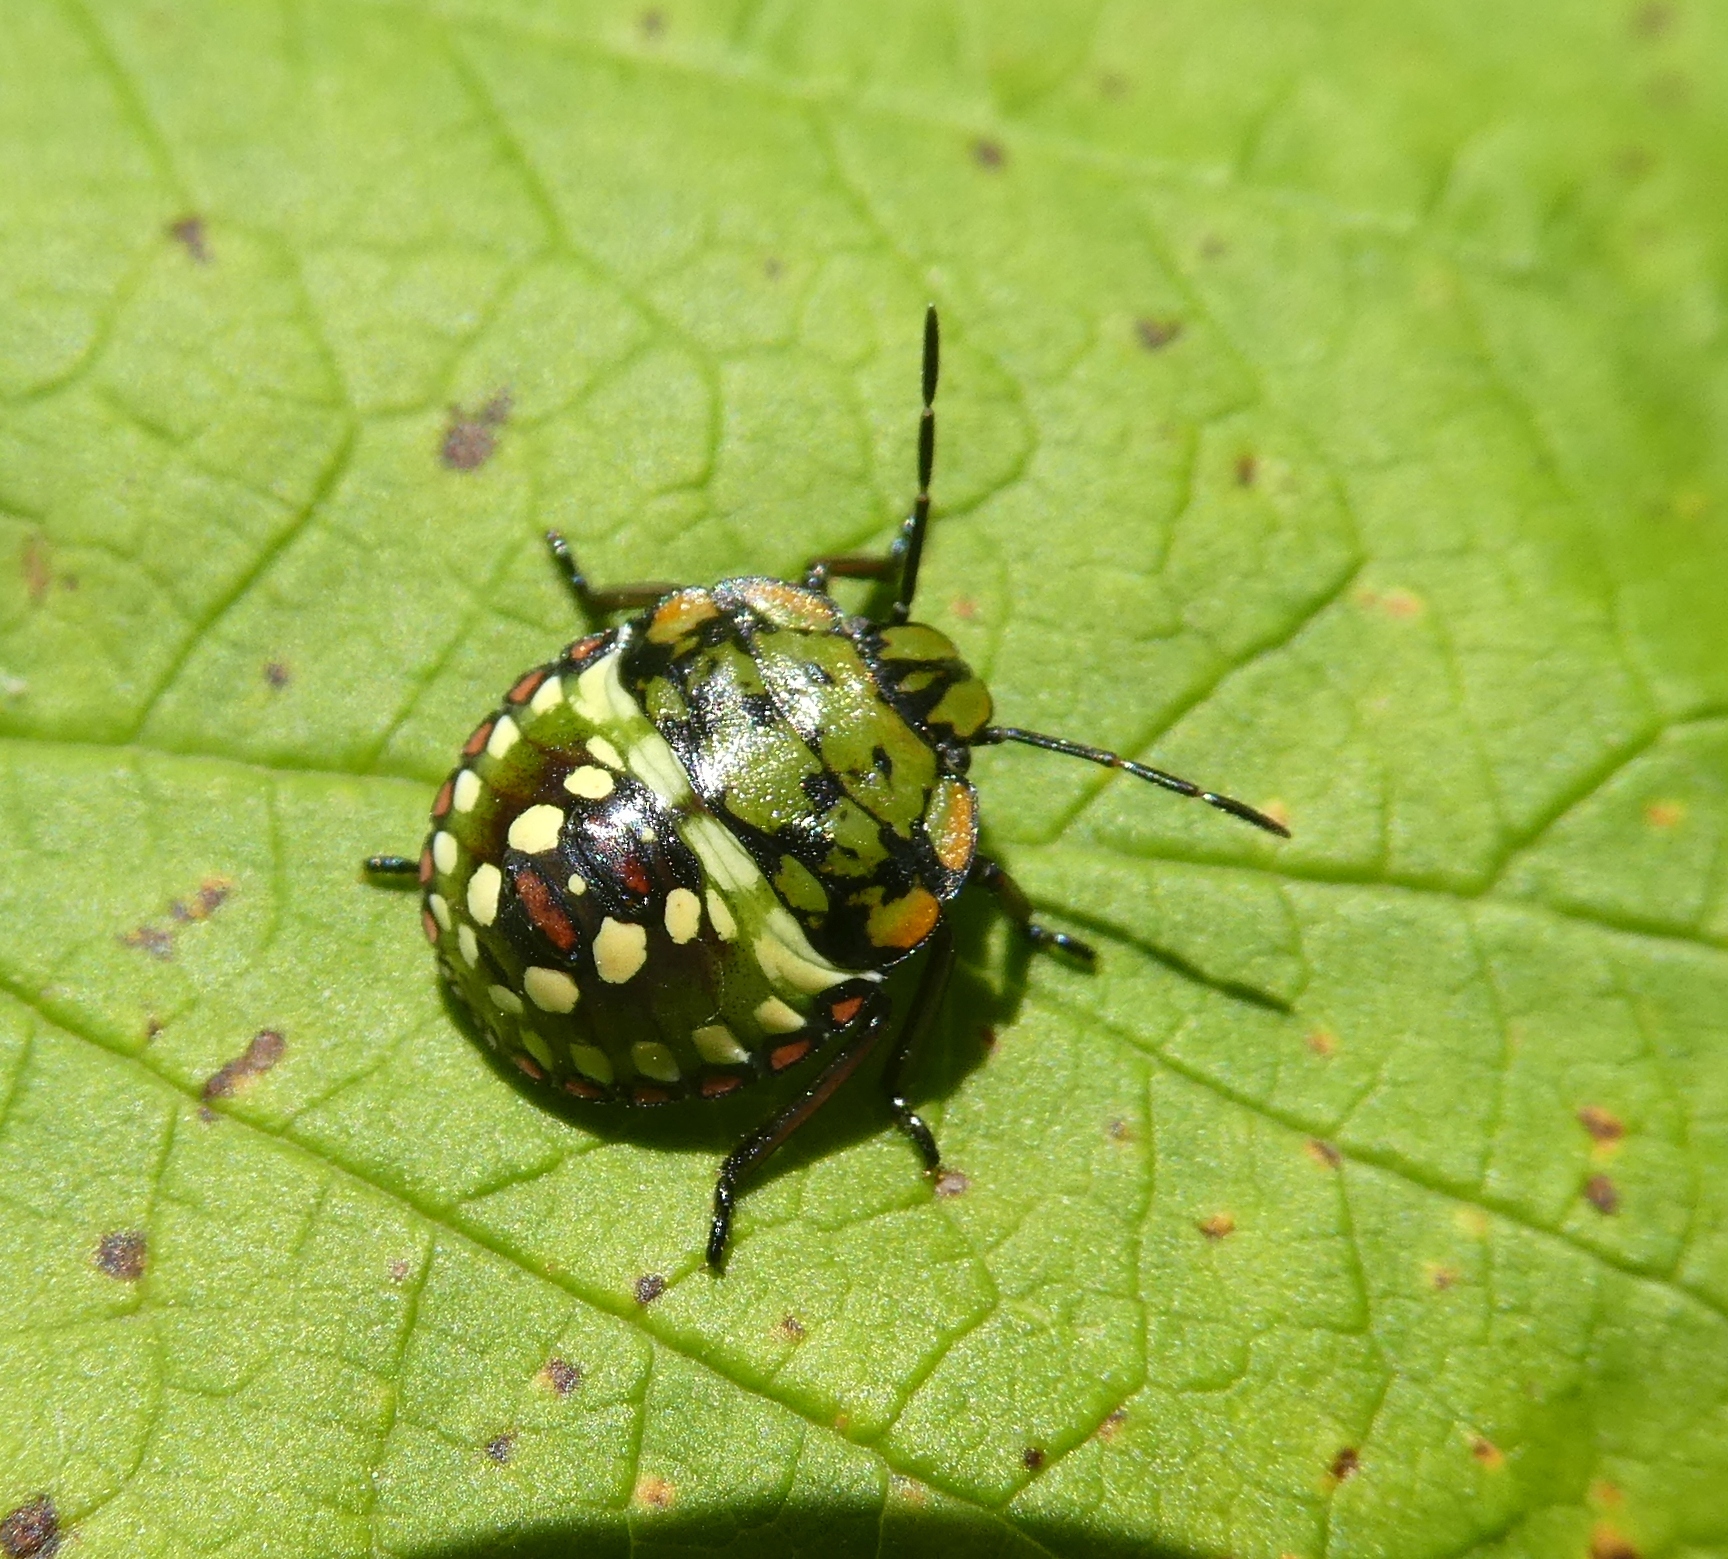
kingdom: Animalia
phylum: Arthropoda
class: Insecta
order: Hemiptera
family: Pentatomidae
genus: Nezara
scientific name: Nezara viridula
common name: Southern green stink bug
